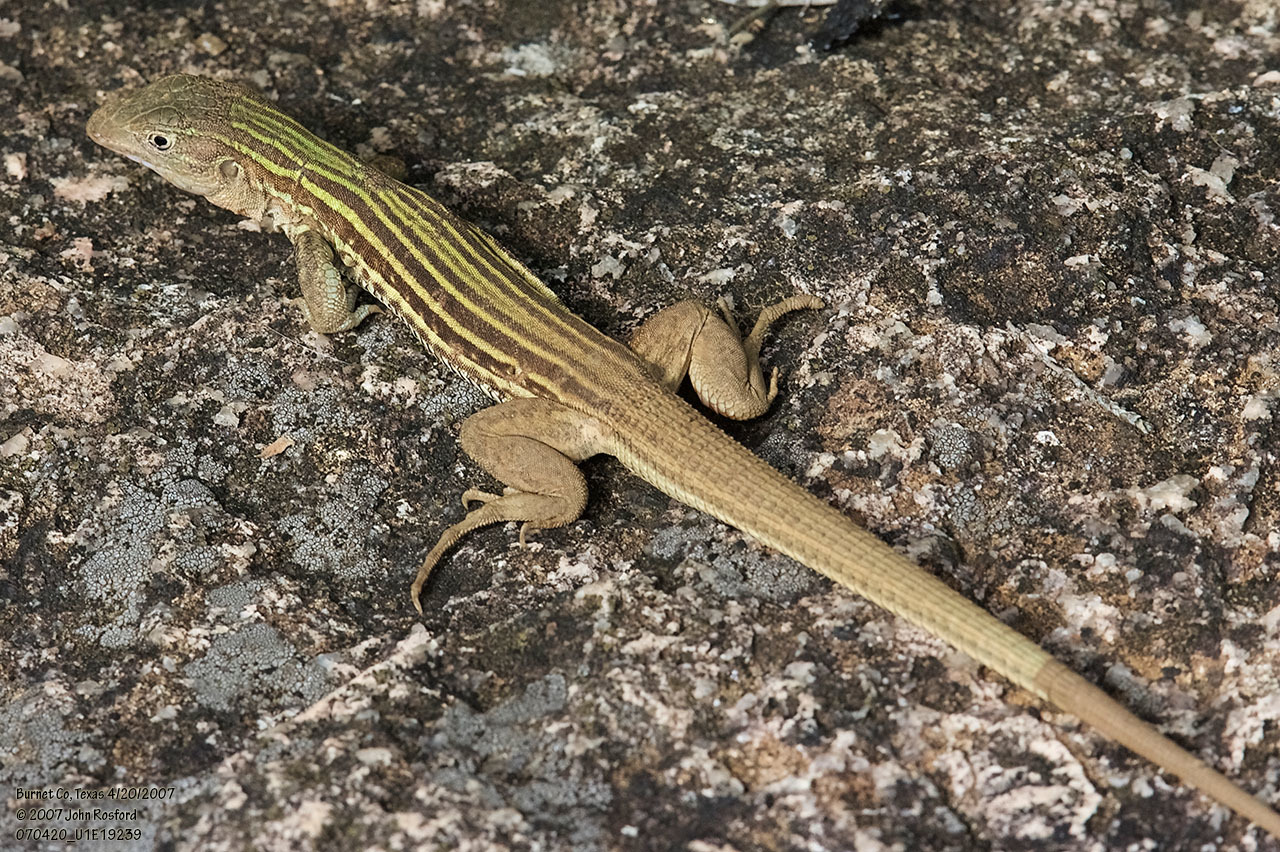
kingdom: Animalia
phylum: Chordata
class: Squamata
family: Teiidae
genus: Aspidoscelis
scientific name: Aspidoscelis gularis
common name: Eastern spotted whiptail
